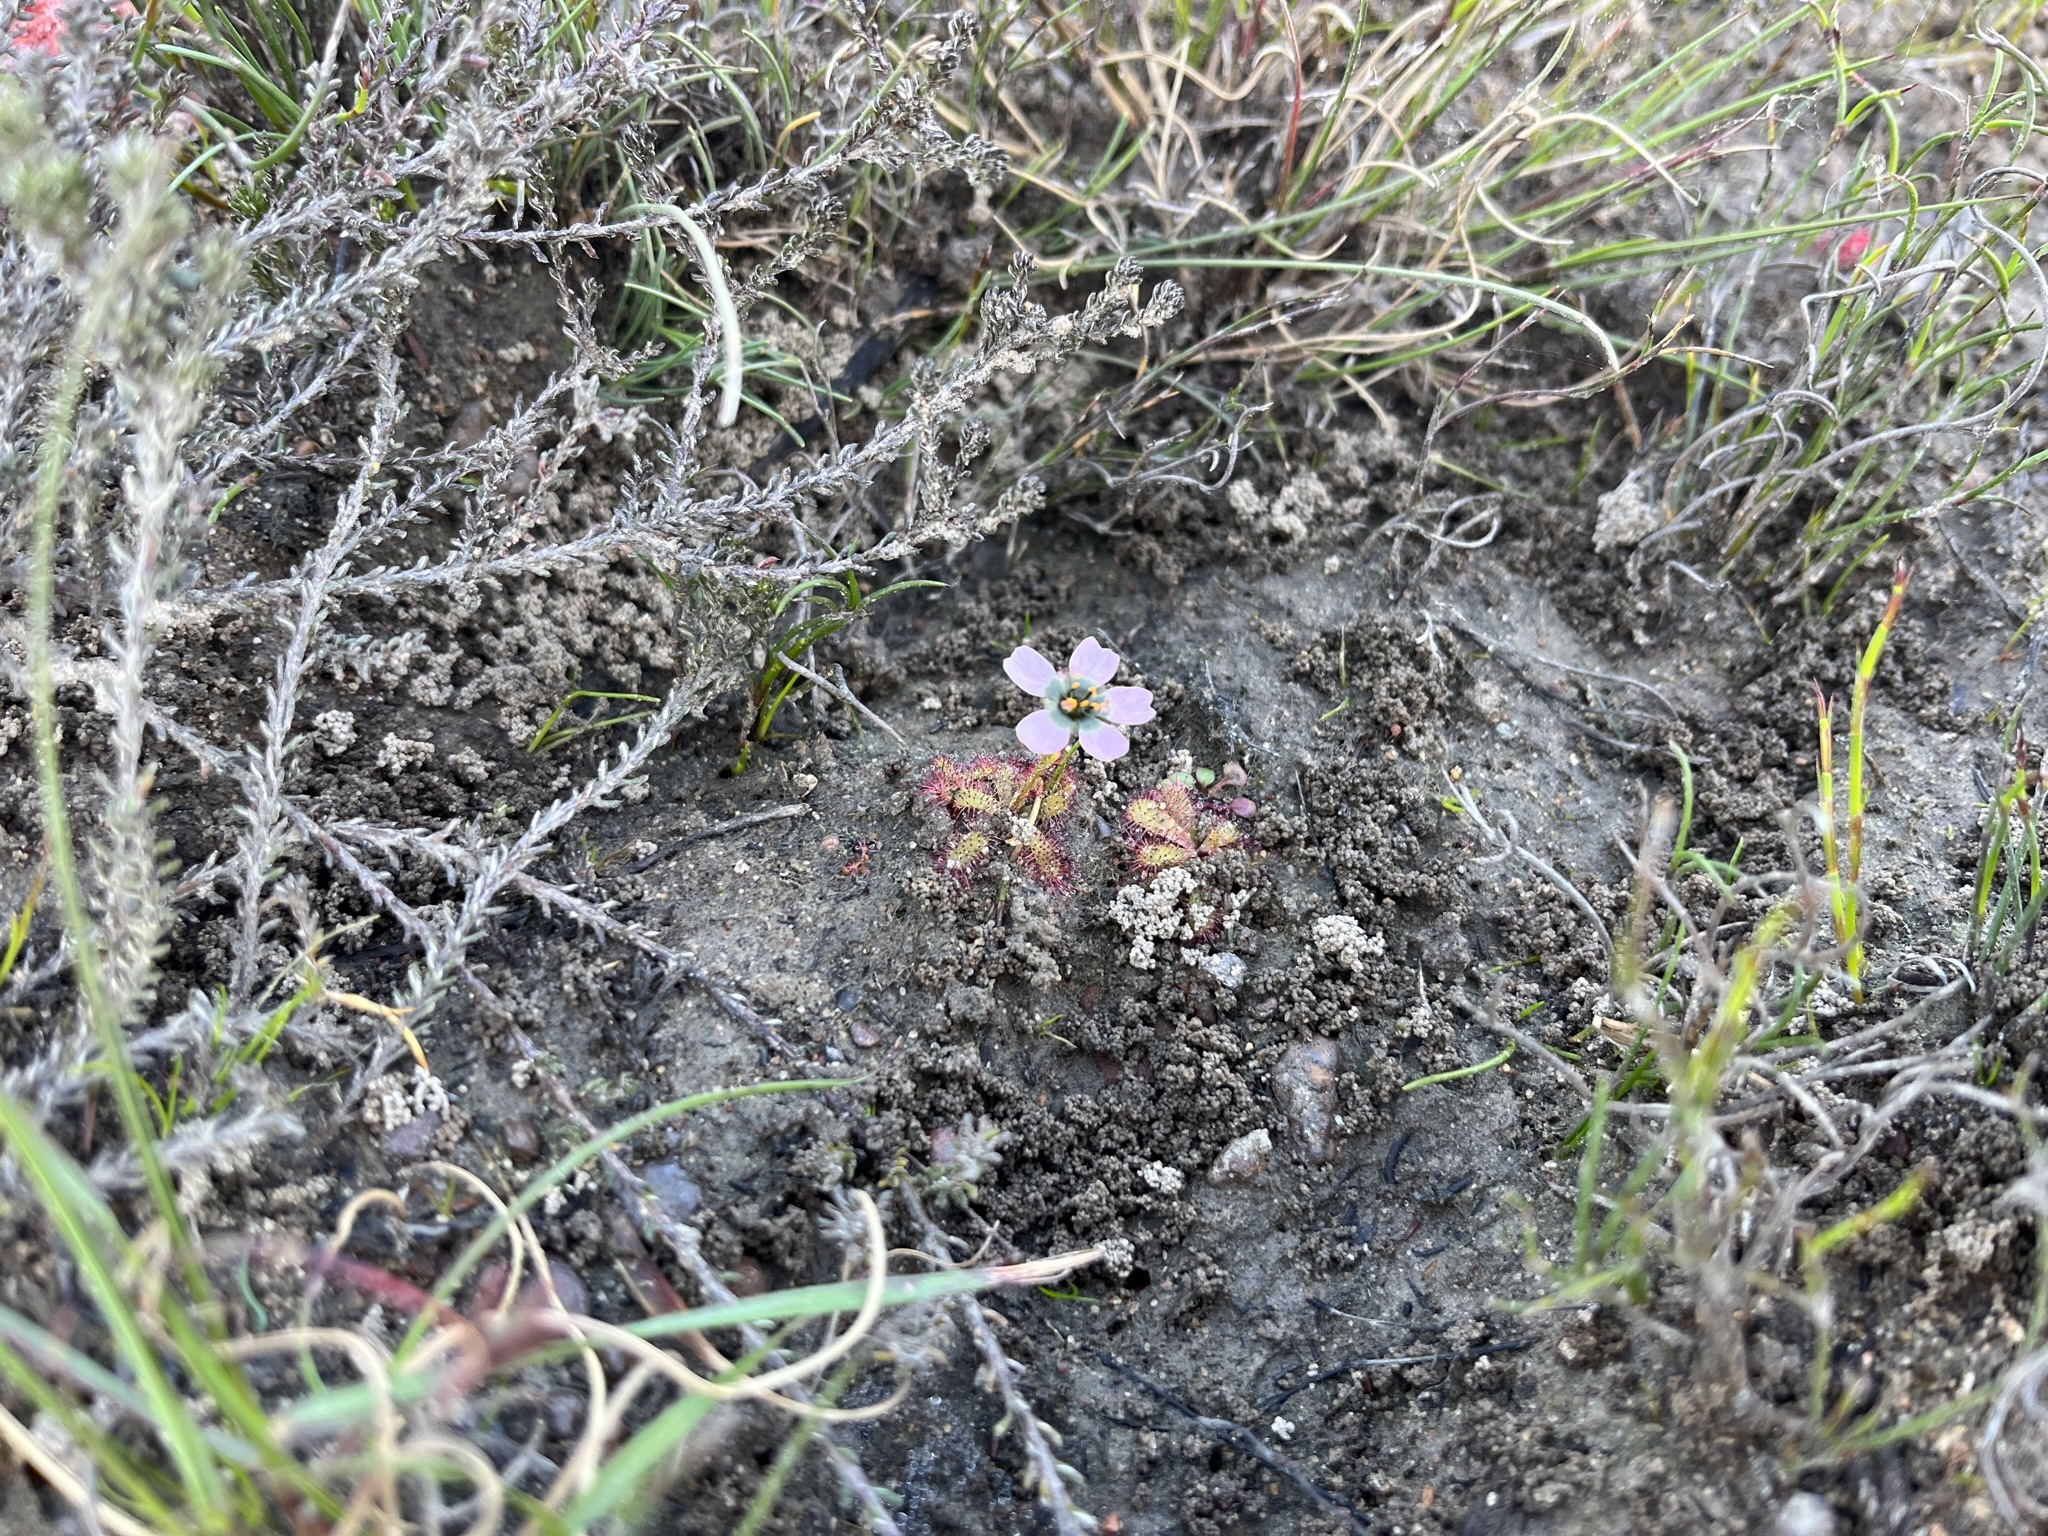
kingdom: Plantae
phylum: Tracheophyta
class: Magnoliopsida
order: Caryophyllales
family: Droseraceae
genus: Drosera
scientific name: Drosera cistiflora
